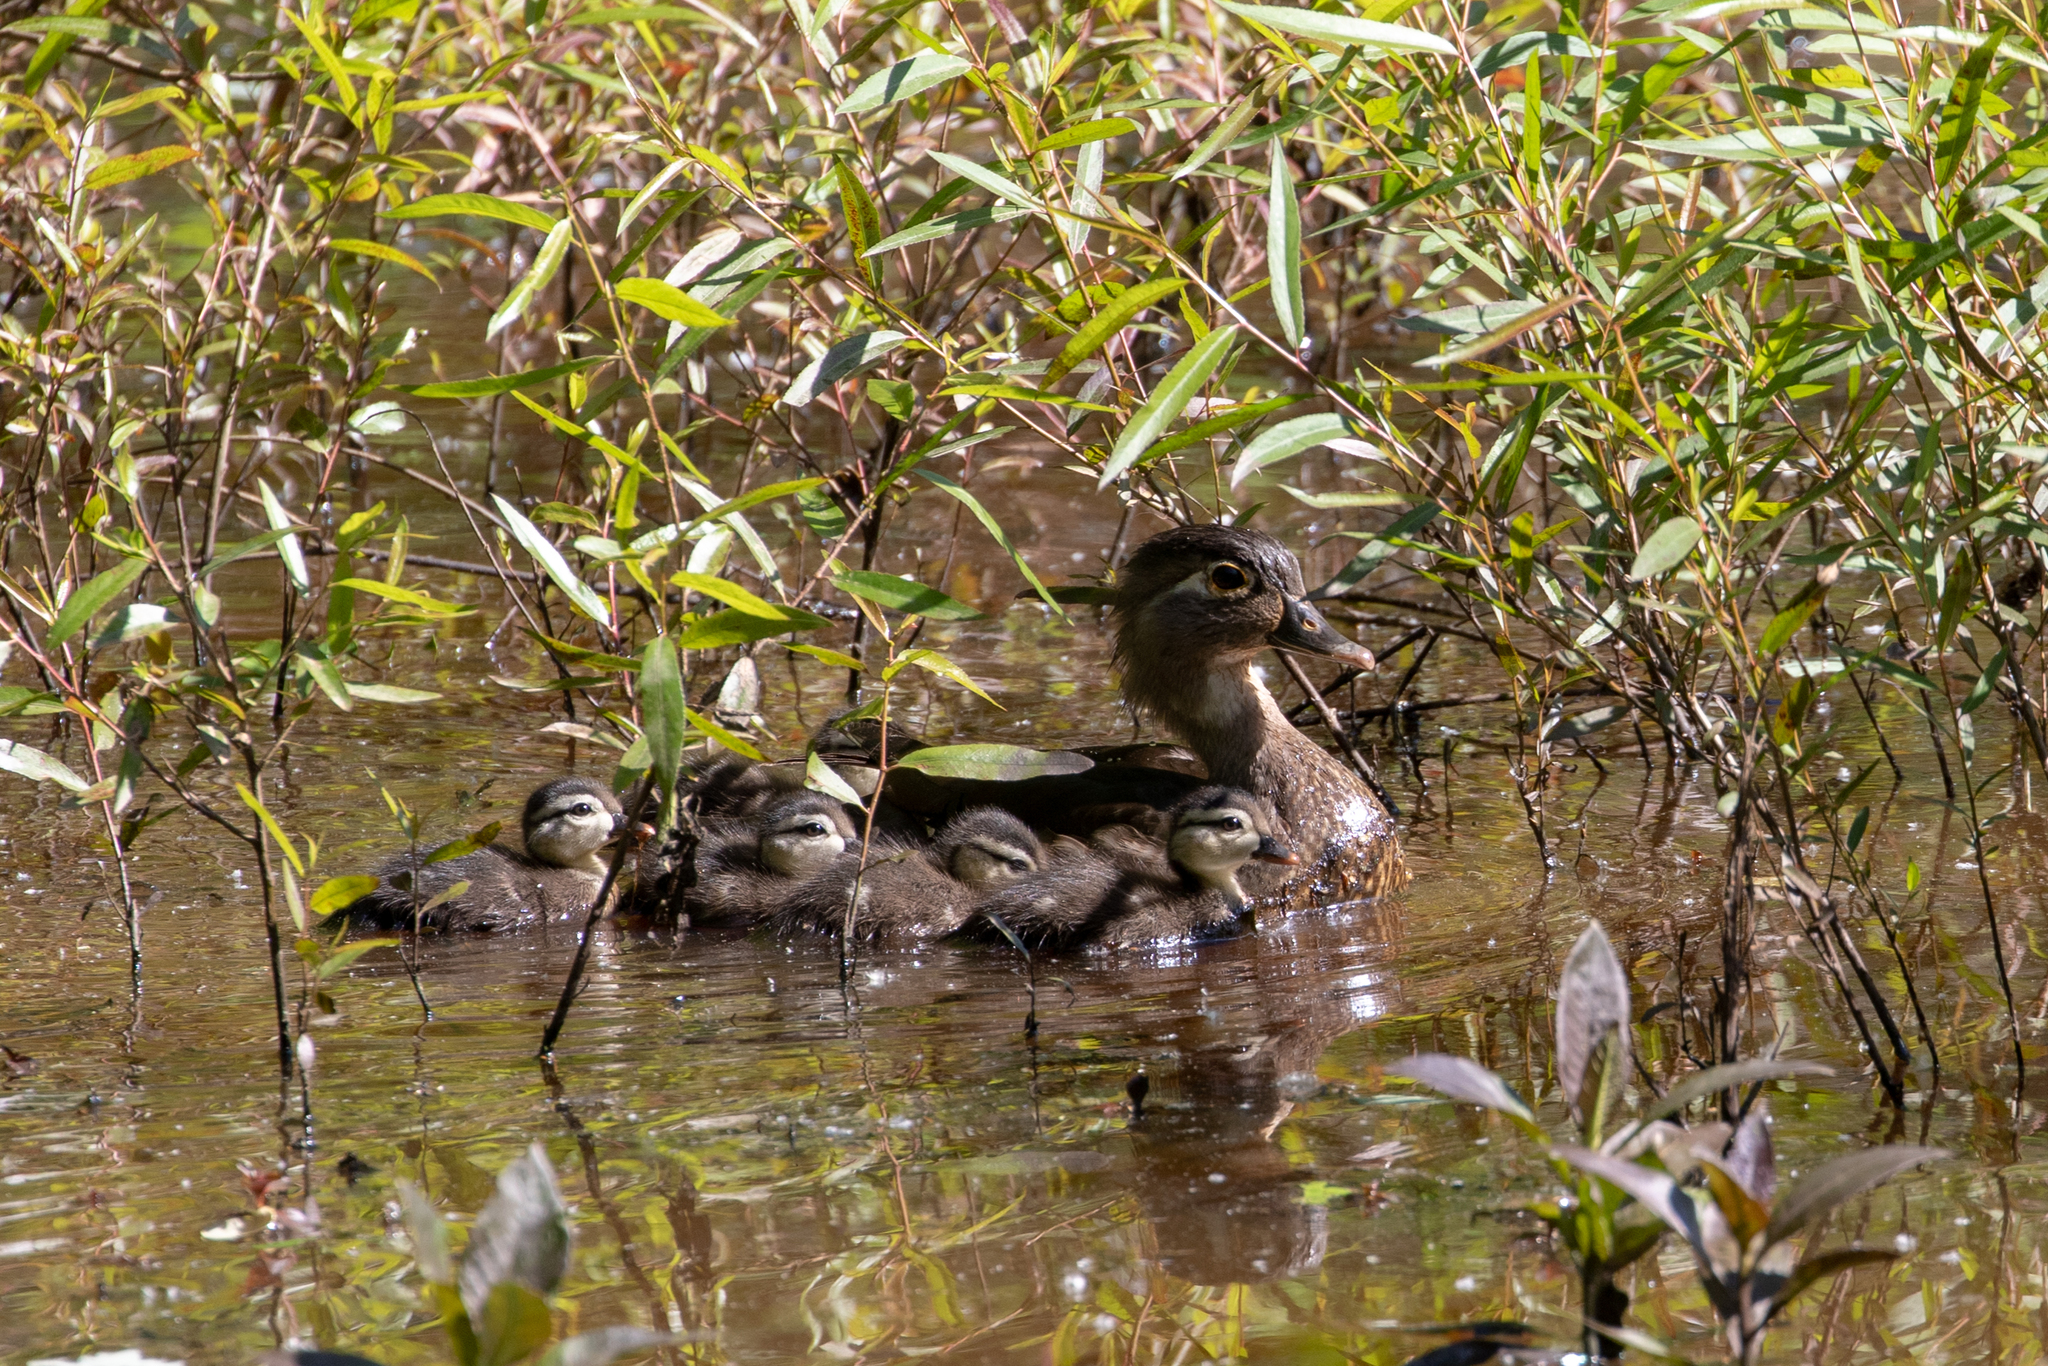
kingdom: Animalia
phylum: Chordata
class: Aves
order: Anseriformes
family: Anatidae
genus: Aix
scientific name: Aix sponsa
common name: Wood duck
